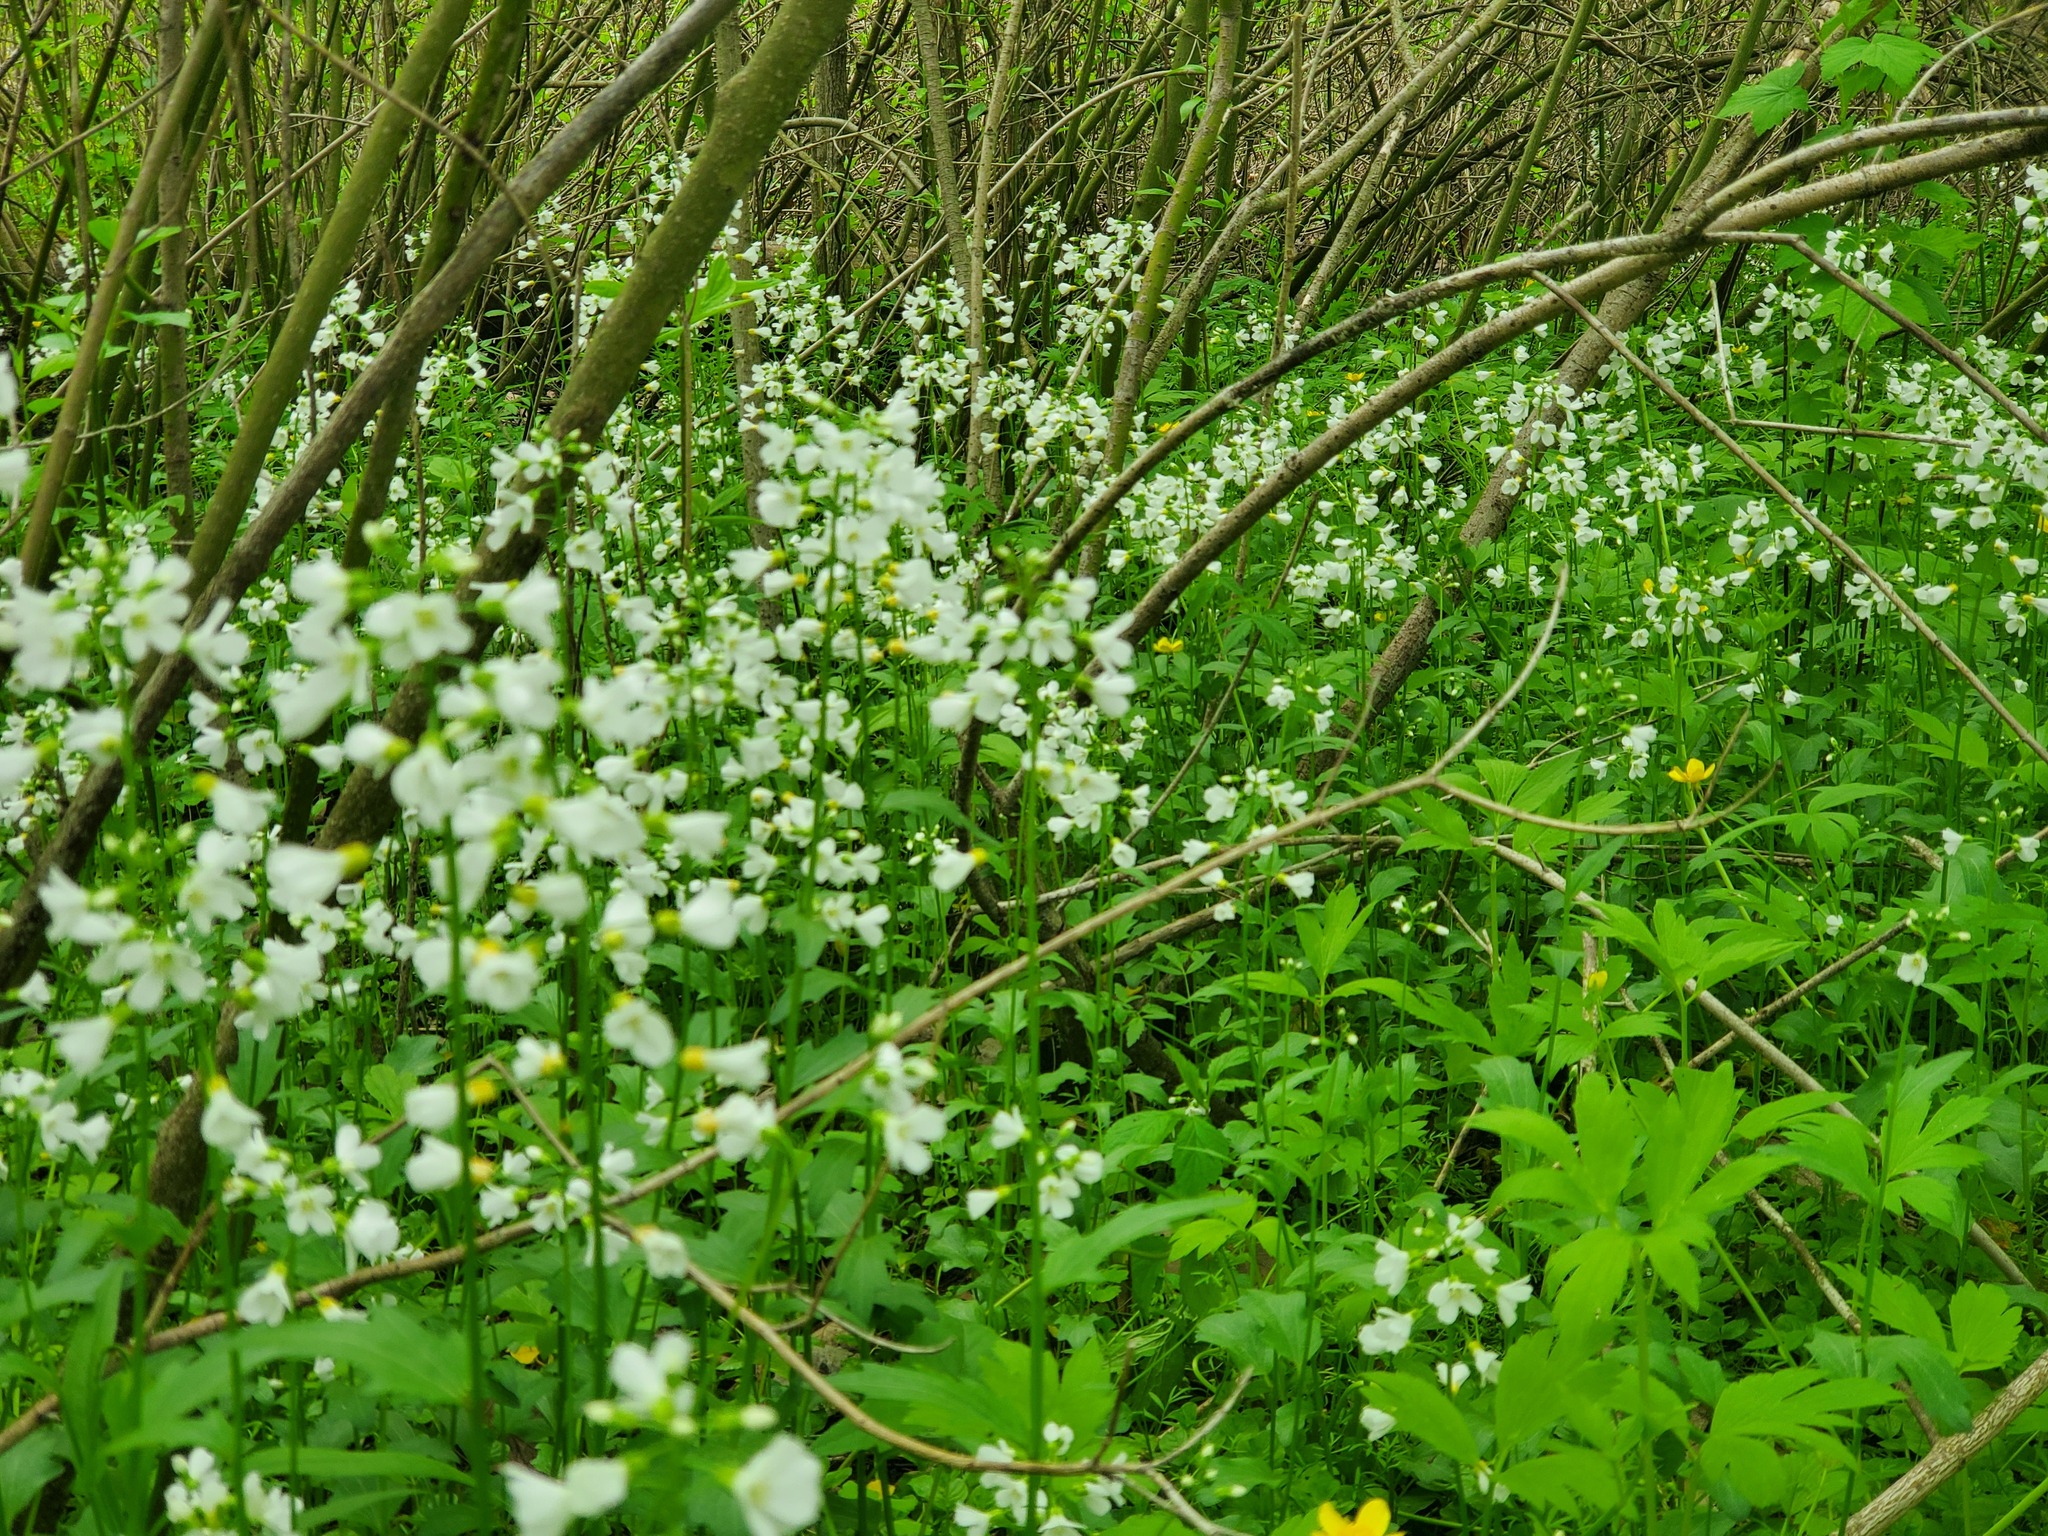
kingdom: Plantae
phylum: Tracheophyta
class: Magnoliopsida
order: Brassicales
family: Brassicaceae
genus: Cardamine
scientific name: Cardamine bulbosa
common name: Spring cress
